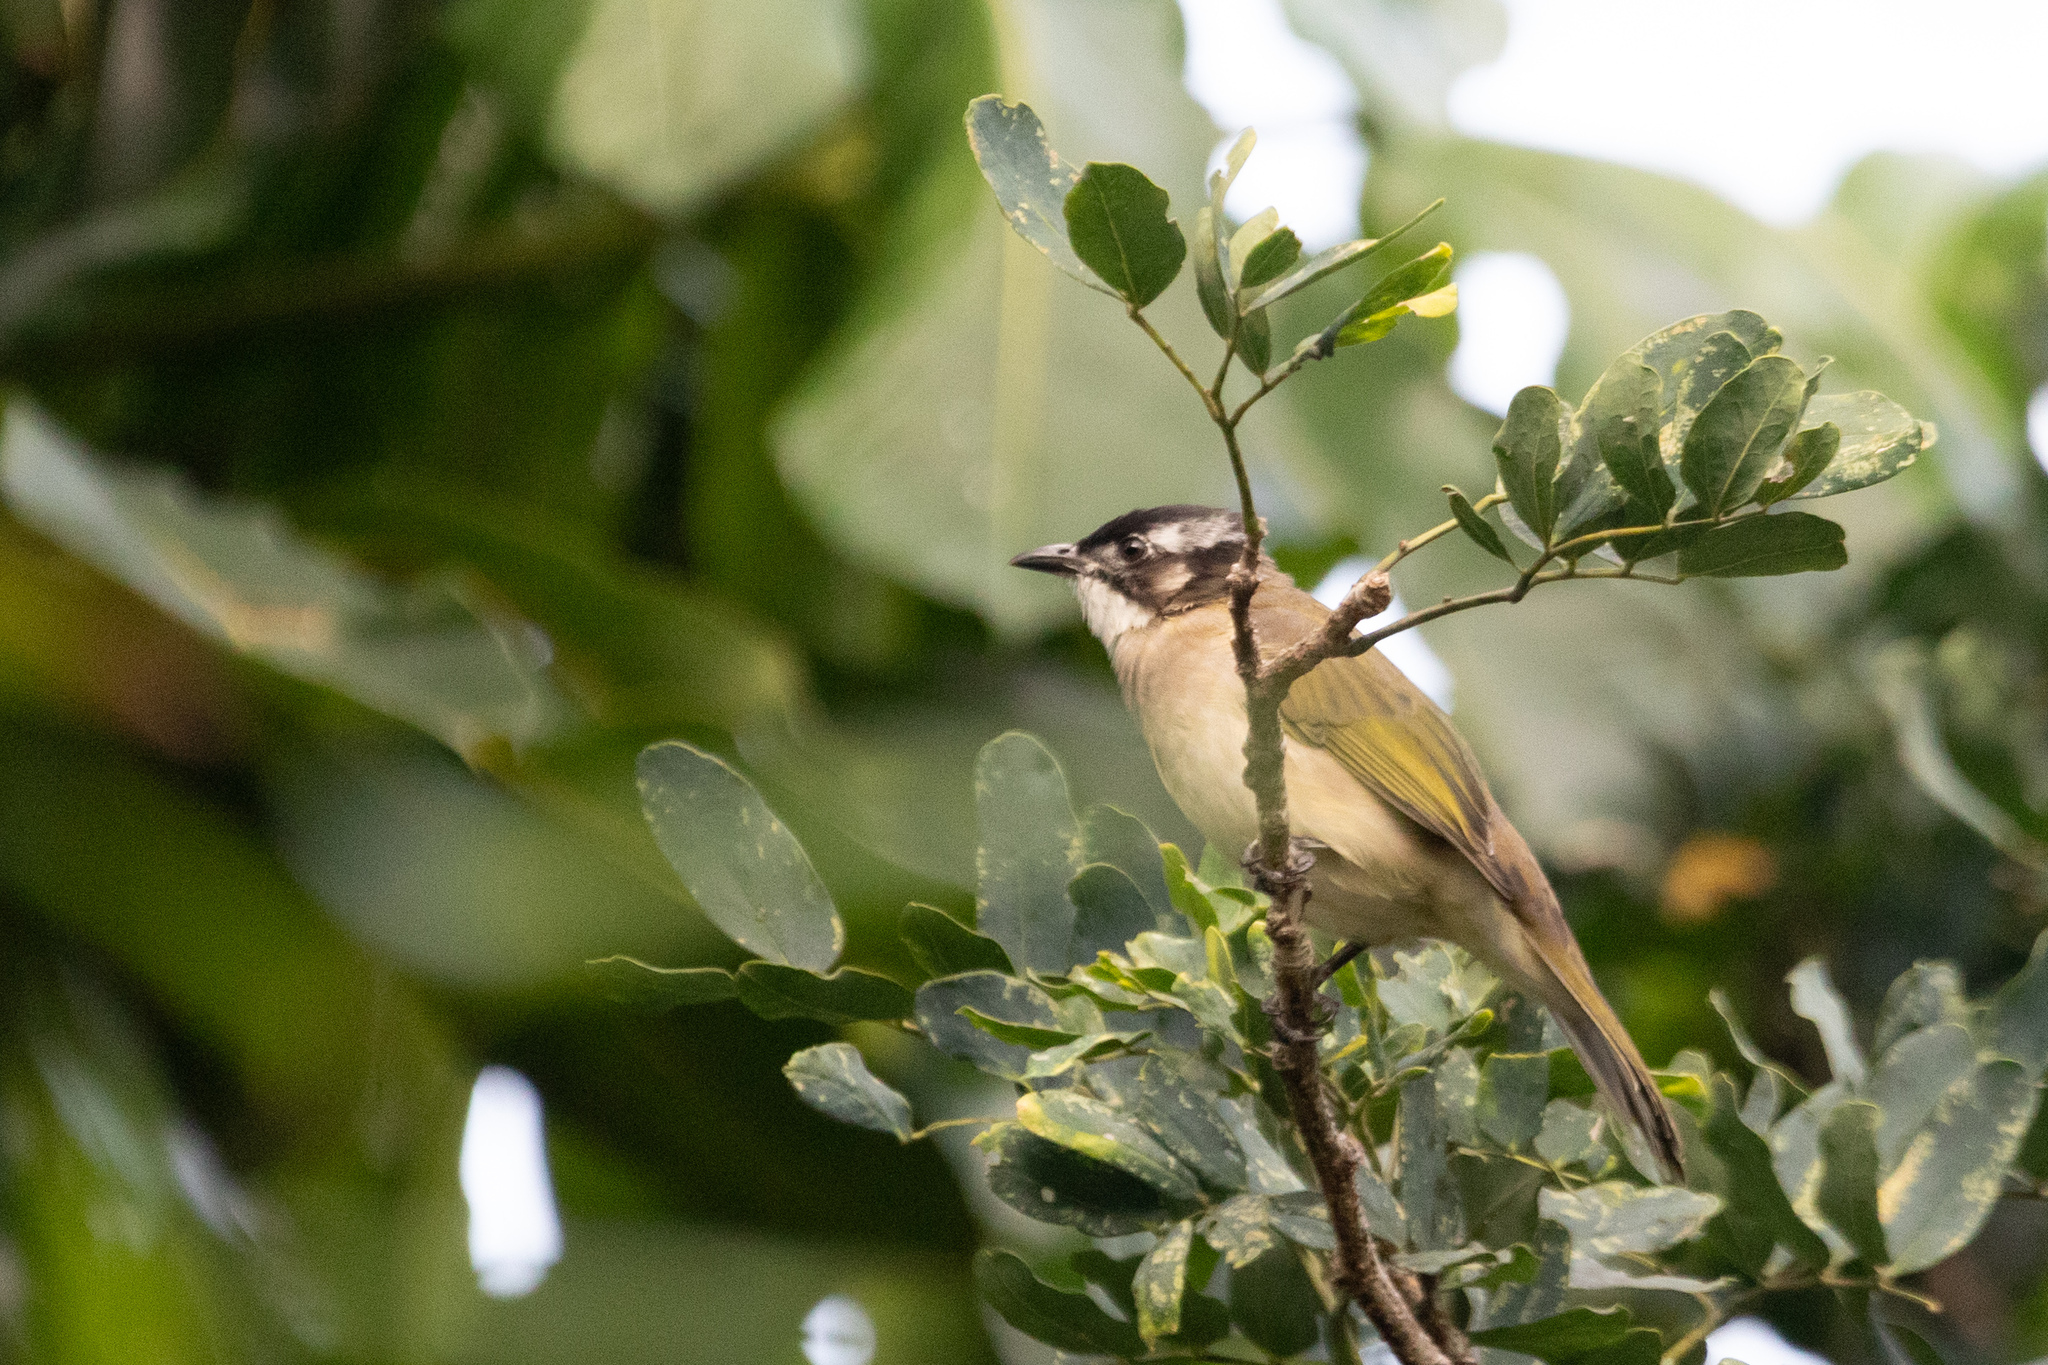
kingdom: Animalia
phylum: Chordata
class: Aves
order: Passeriformes
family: Pycnonotidae
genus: Pycnonotus
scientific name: Pycnonotus sinensis
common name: Light-vented bulbul
